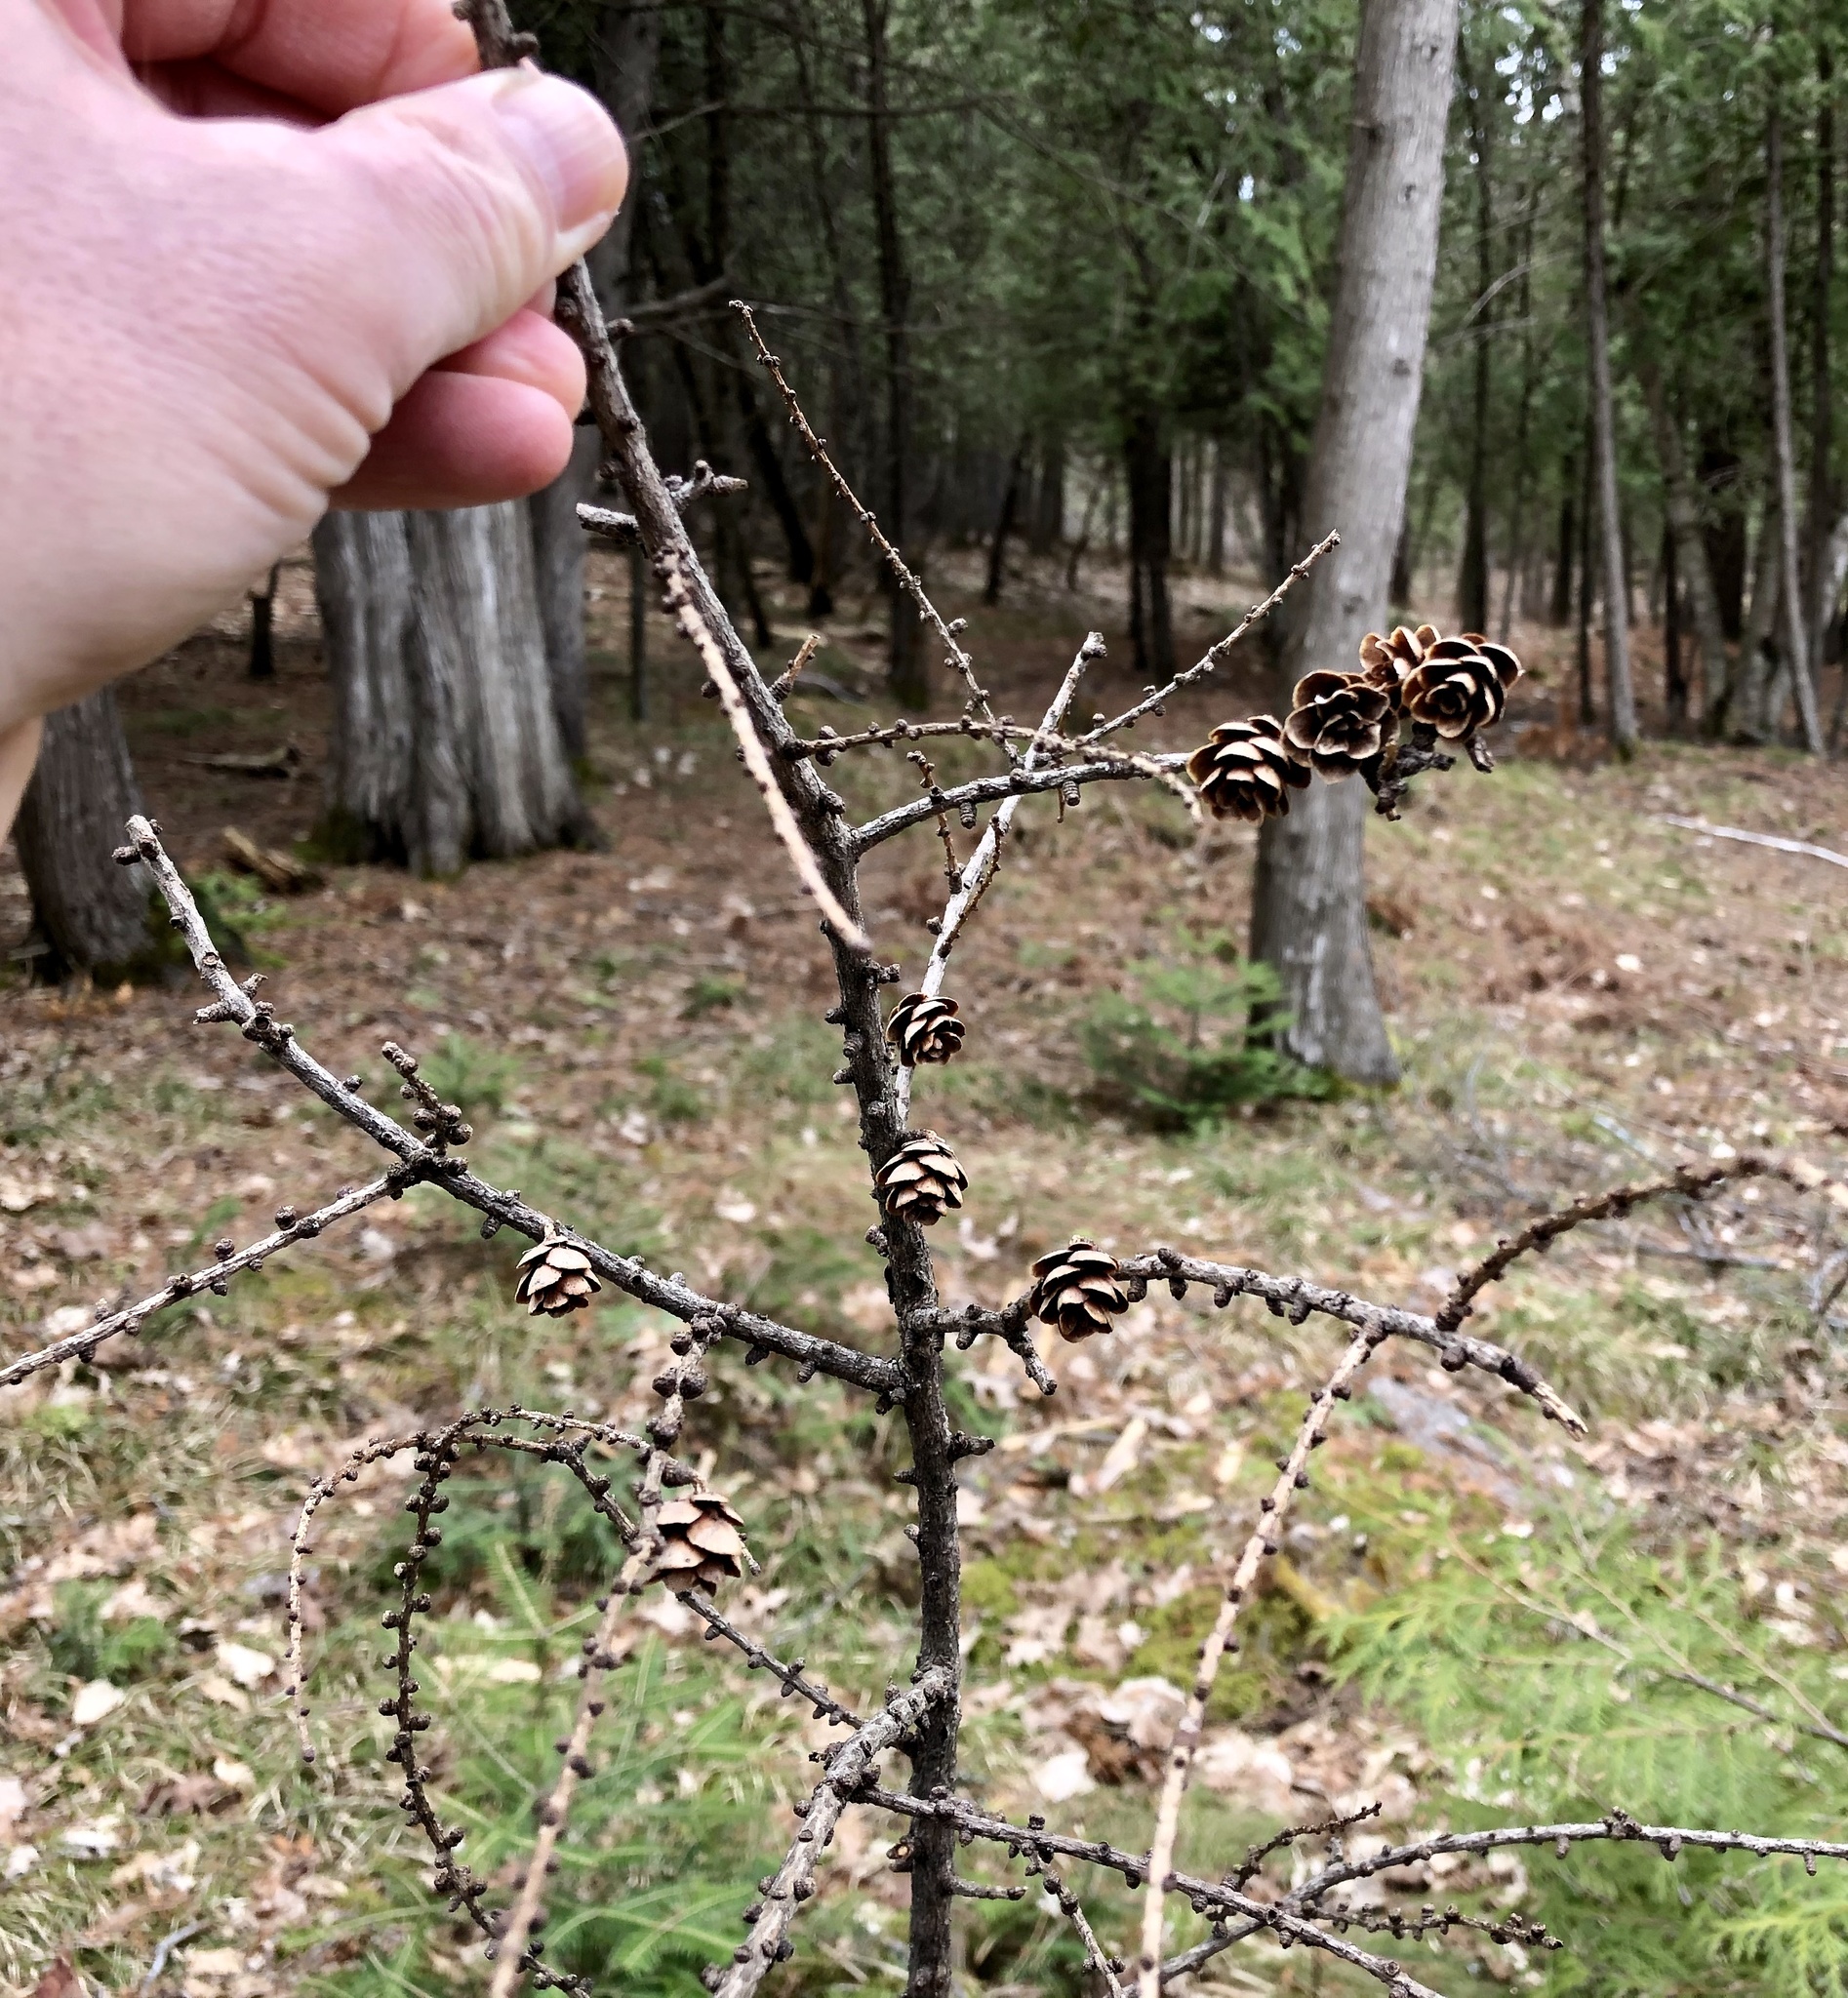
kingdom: Plantae
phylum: Tracheophyta
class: Pinopsida
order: Pinales
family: Pinaceae
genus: Larix
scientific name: Larix laricina
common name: American larch
